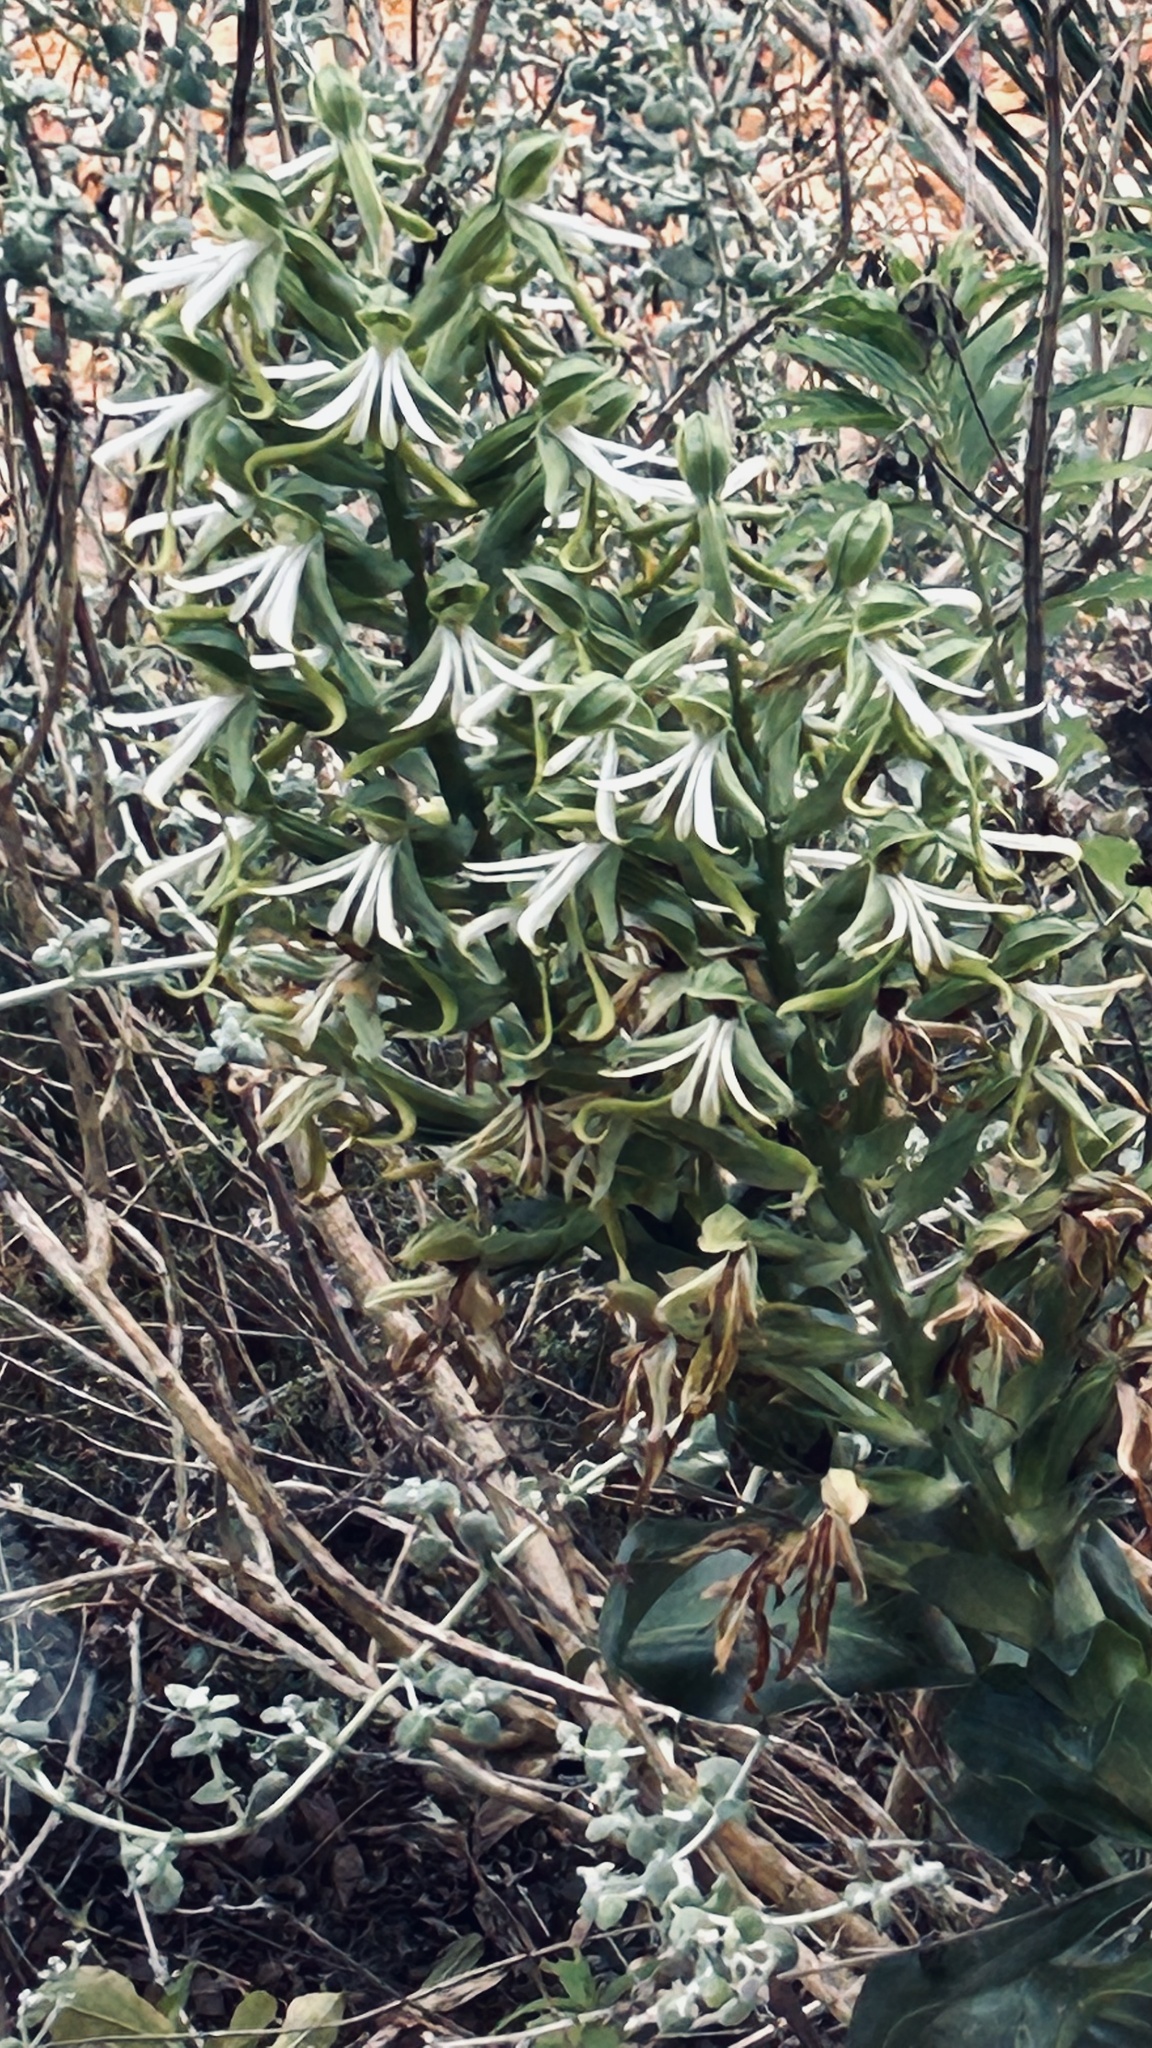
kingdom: Plantae
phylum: Tracheophyta
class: Liliopsida
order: Asparagales
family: Orchidaceae
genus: Bonatea
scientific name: Bonatea speciosa
